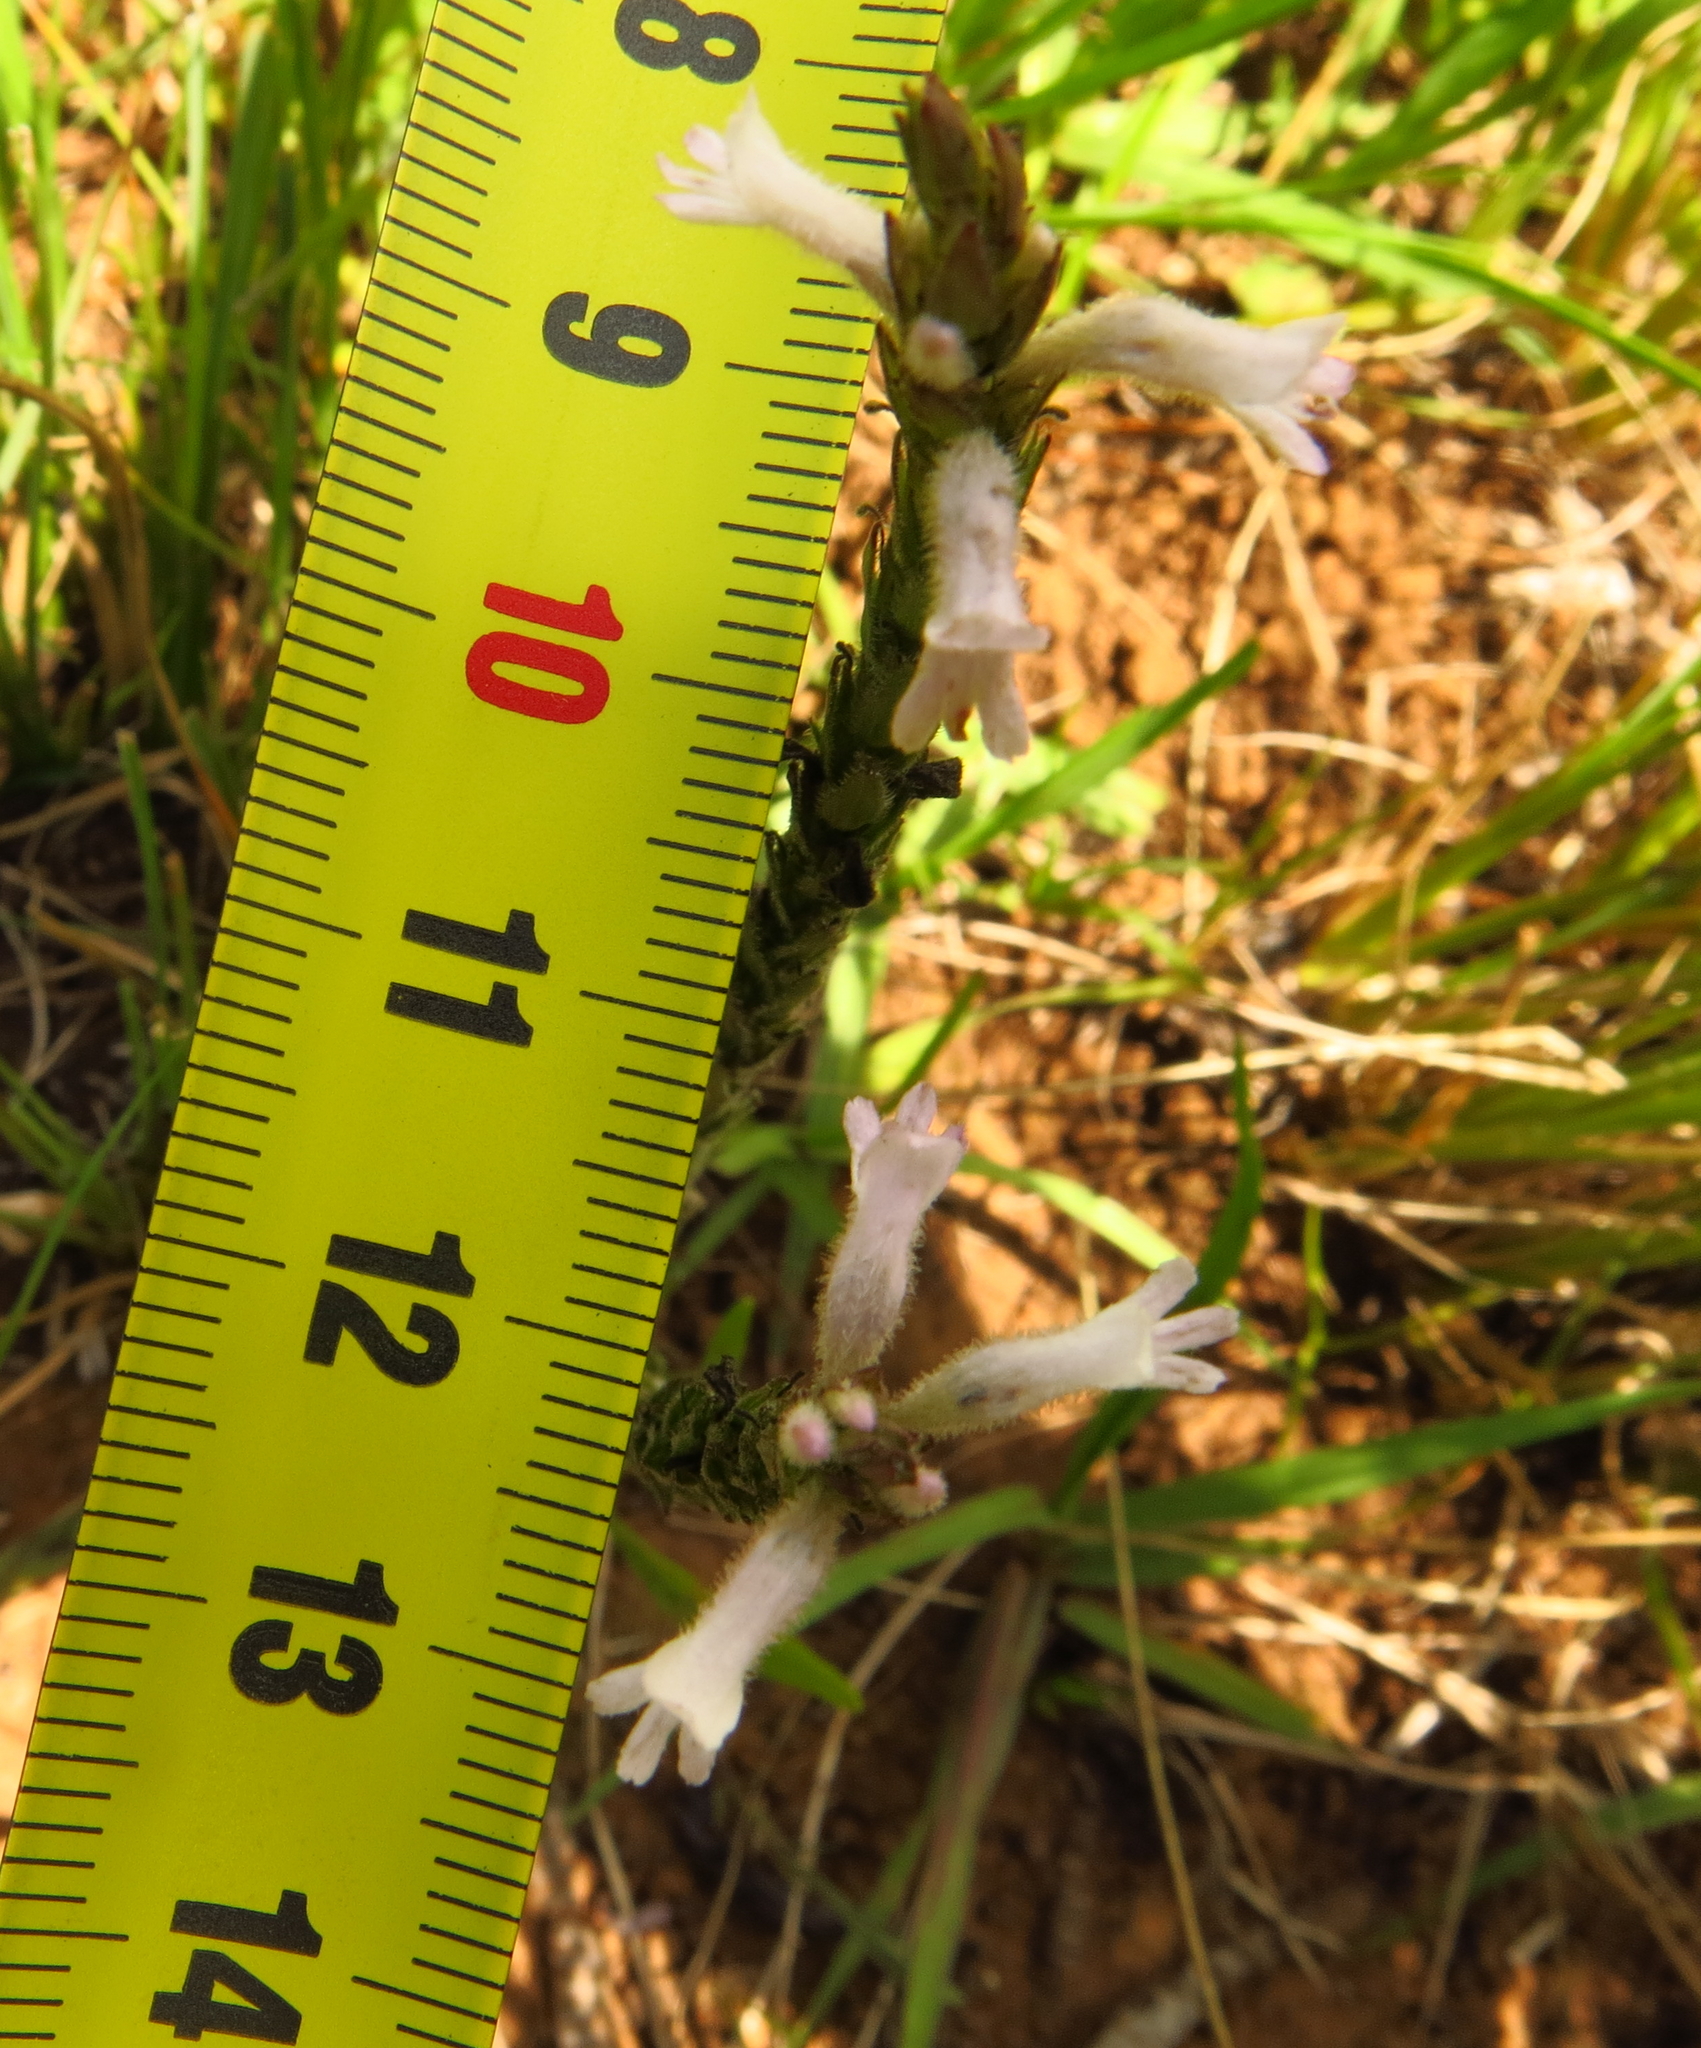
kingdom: Plantae
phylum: Tracheophyta
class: Magnoliopsida
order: Lamiales
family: Orobanchaceae
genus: Striga
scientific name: Striga bilabiata
